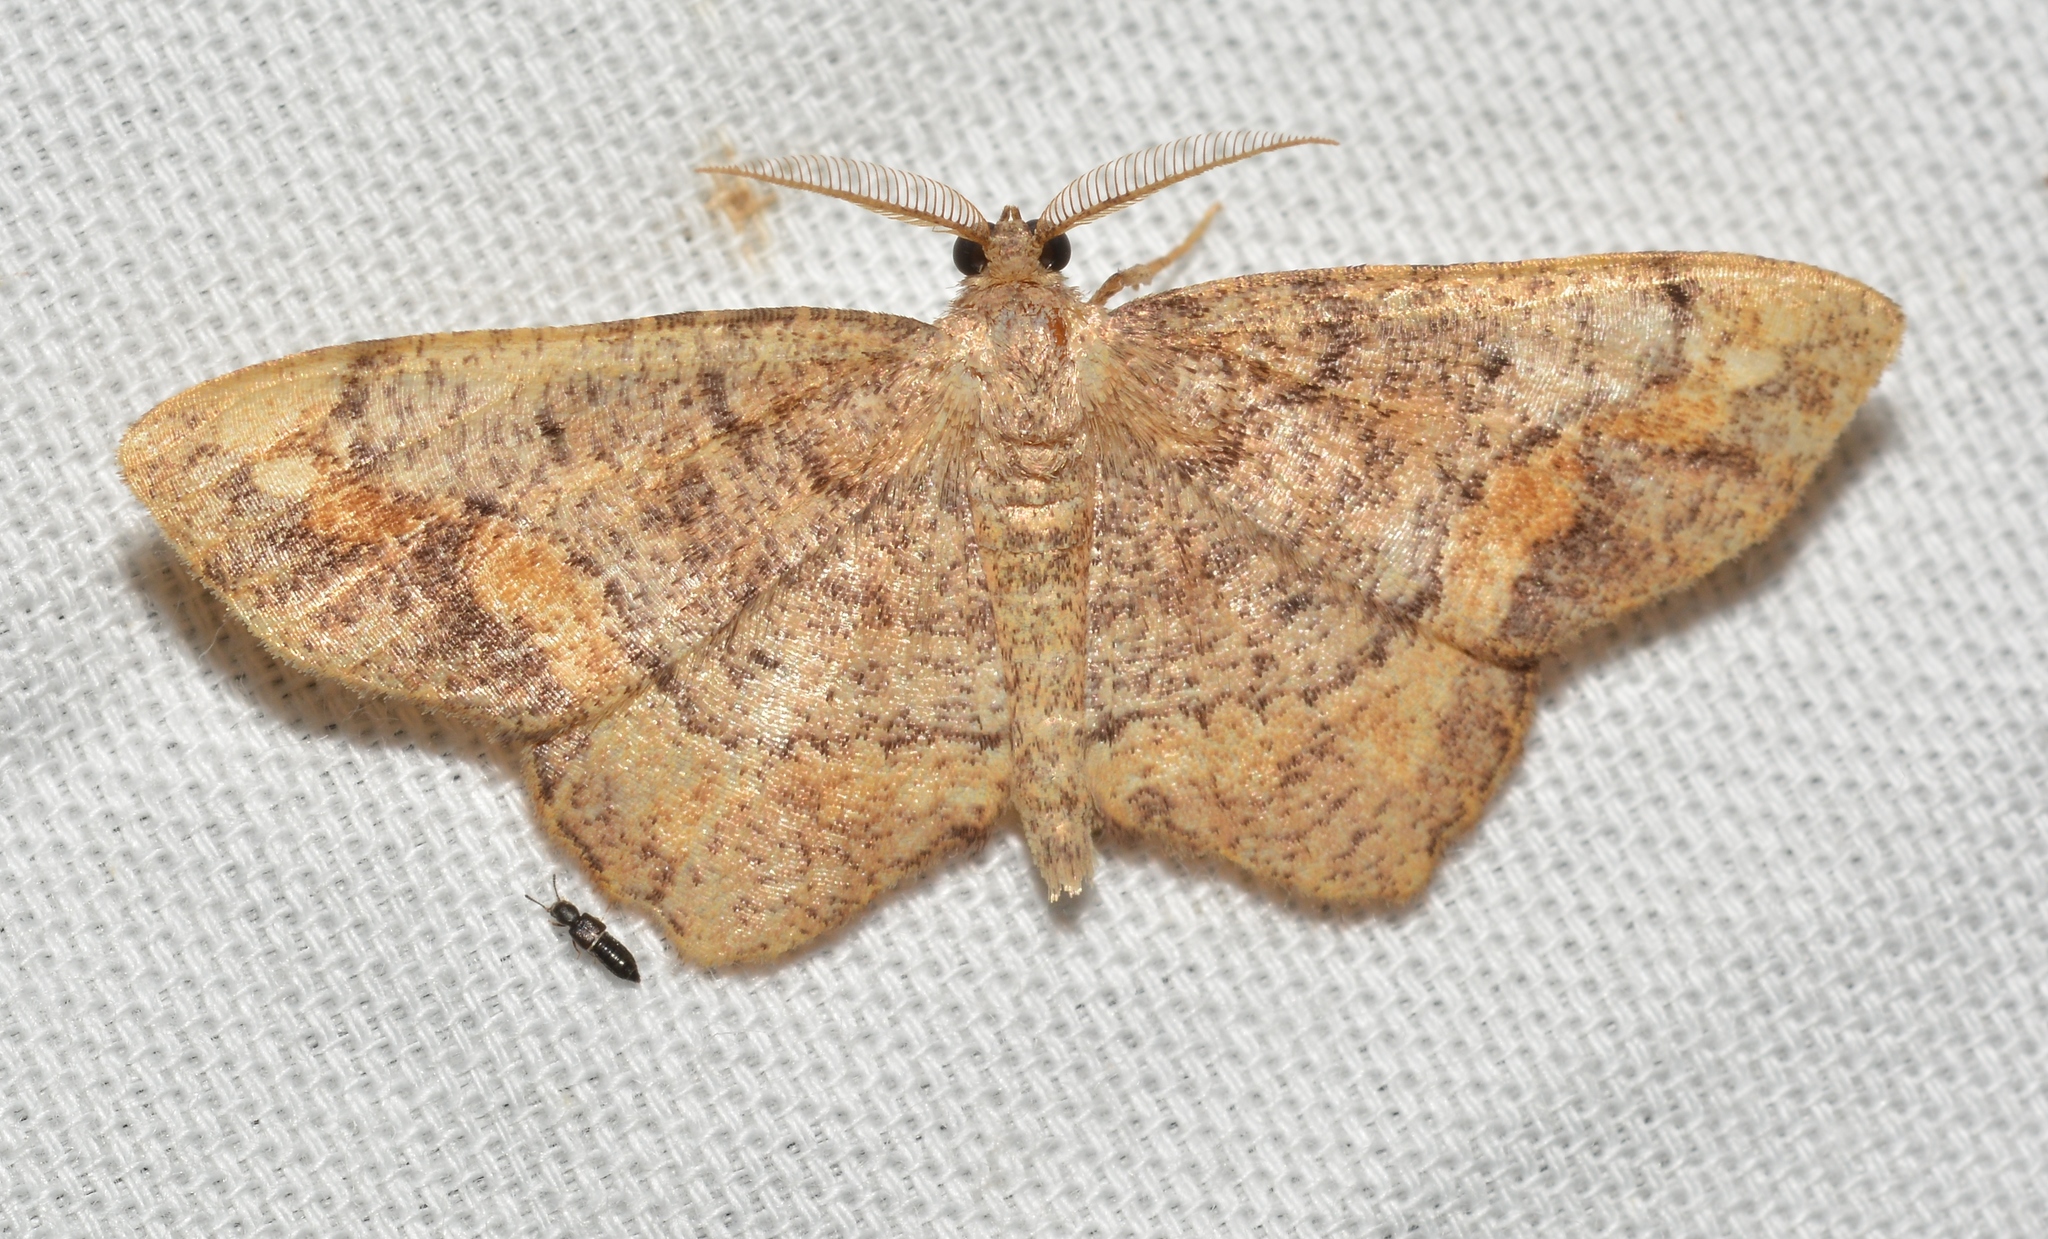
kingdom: Animalia
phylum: Arthropoda
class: Insecta
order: Lepidoptera
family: Geometridae
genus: Hypagyrtis
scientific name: Hypagyrtis unipunctata
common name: One-spotted variant
